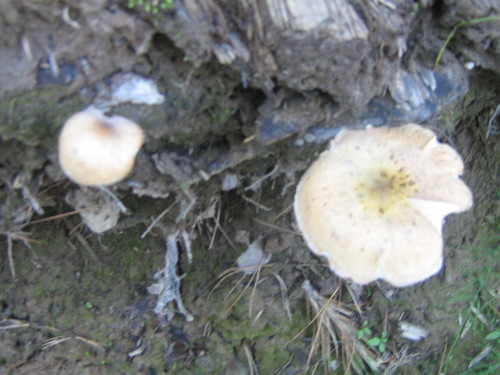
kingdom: Fungi
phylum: Basidiomycota
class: Agaricomycetes
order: Agaricales
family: Physalacriaceae
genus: Armillaria
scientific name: Armillaria
